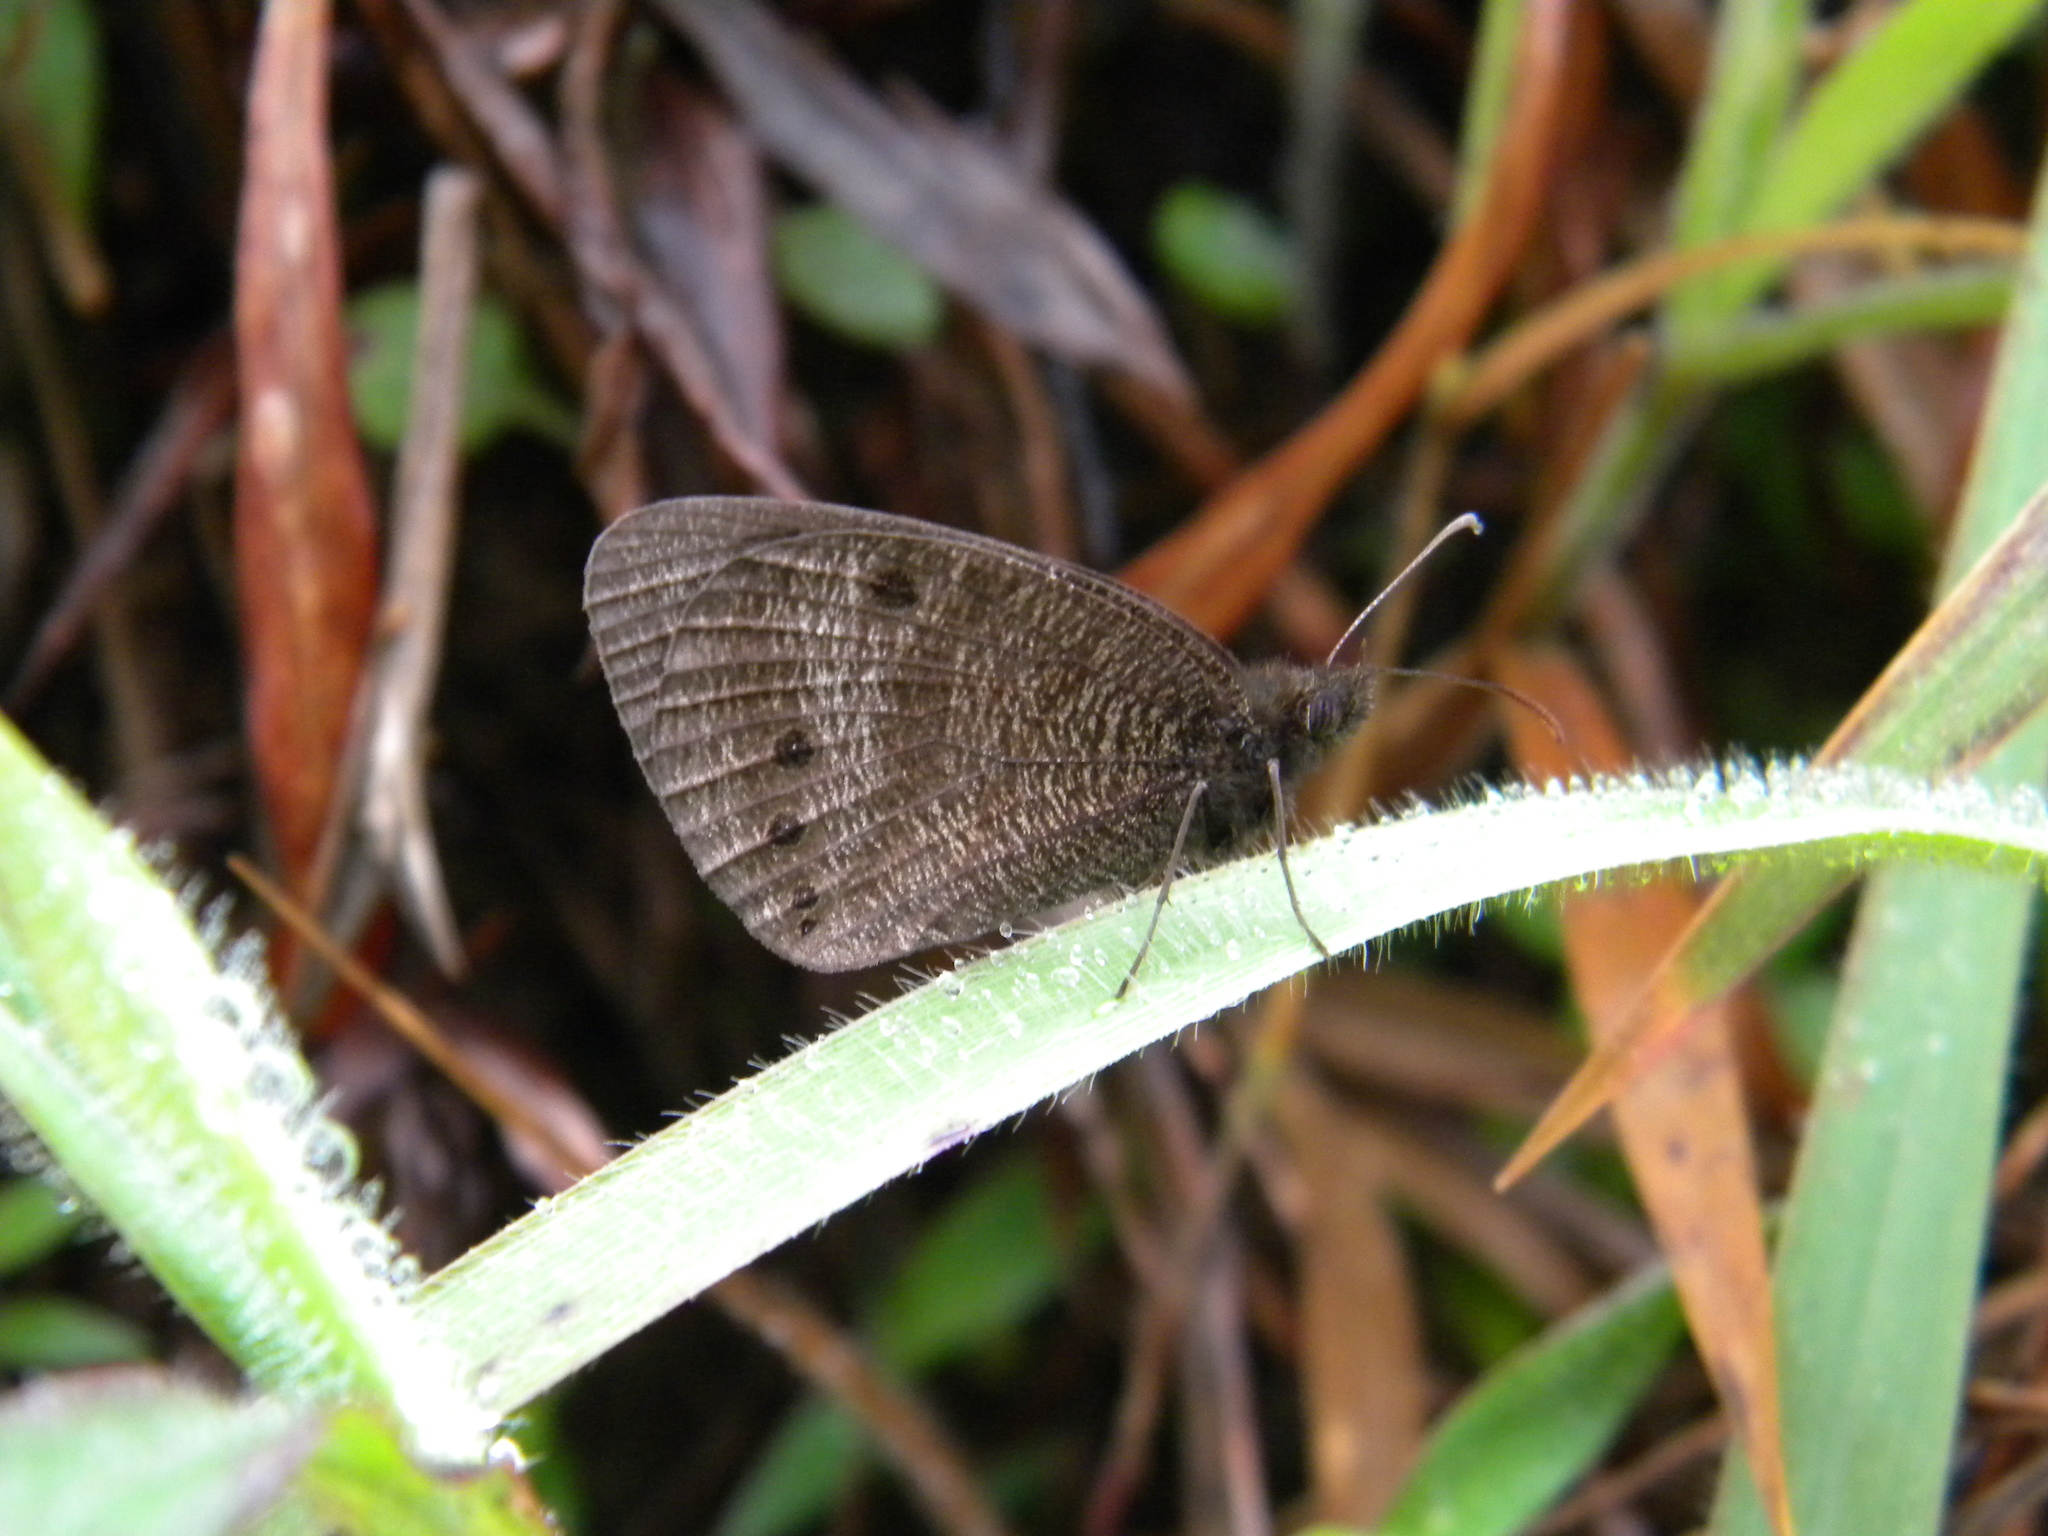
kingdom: Animalia
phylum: Arthropoda
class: Insecta
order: Lepidoptera
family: Nymphalidae
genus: Ypthima
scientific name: Ypthima ypthimoides
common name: Palni four-ring
